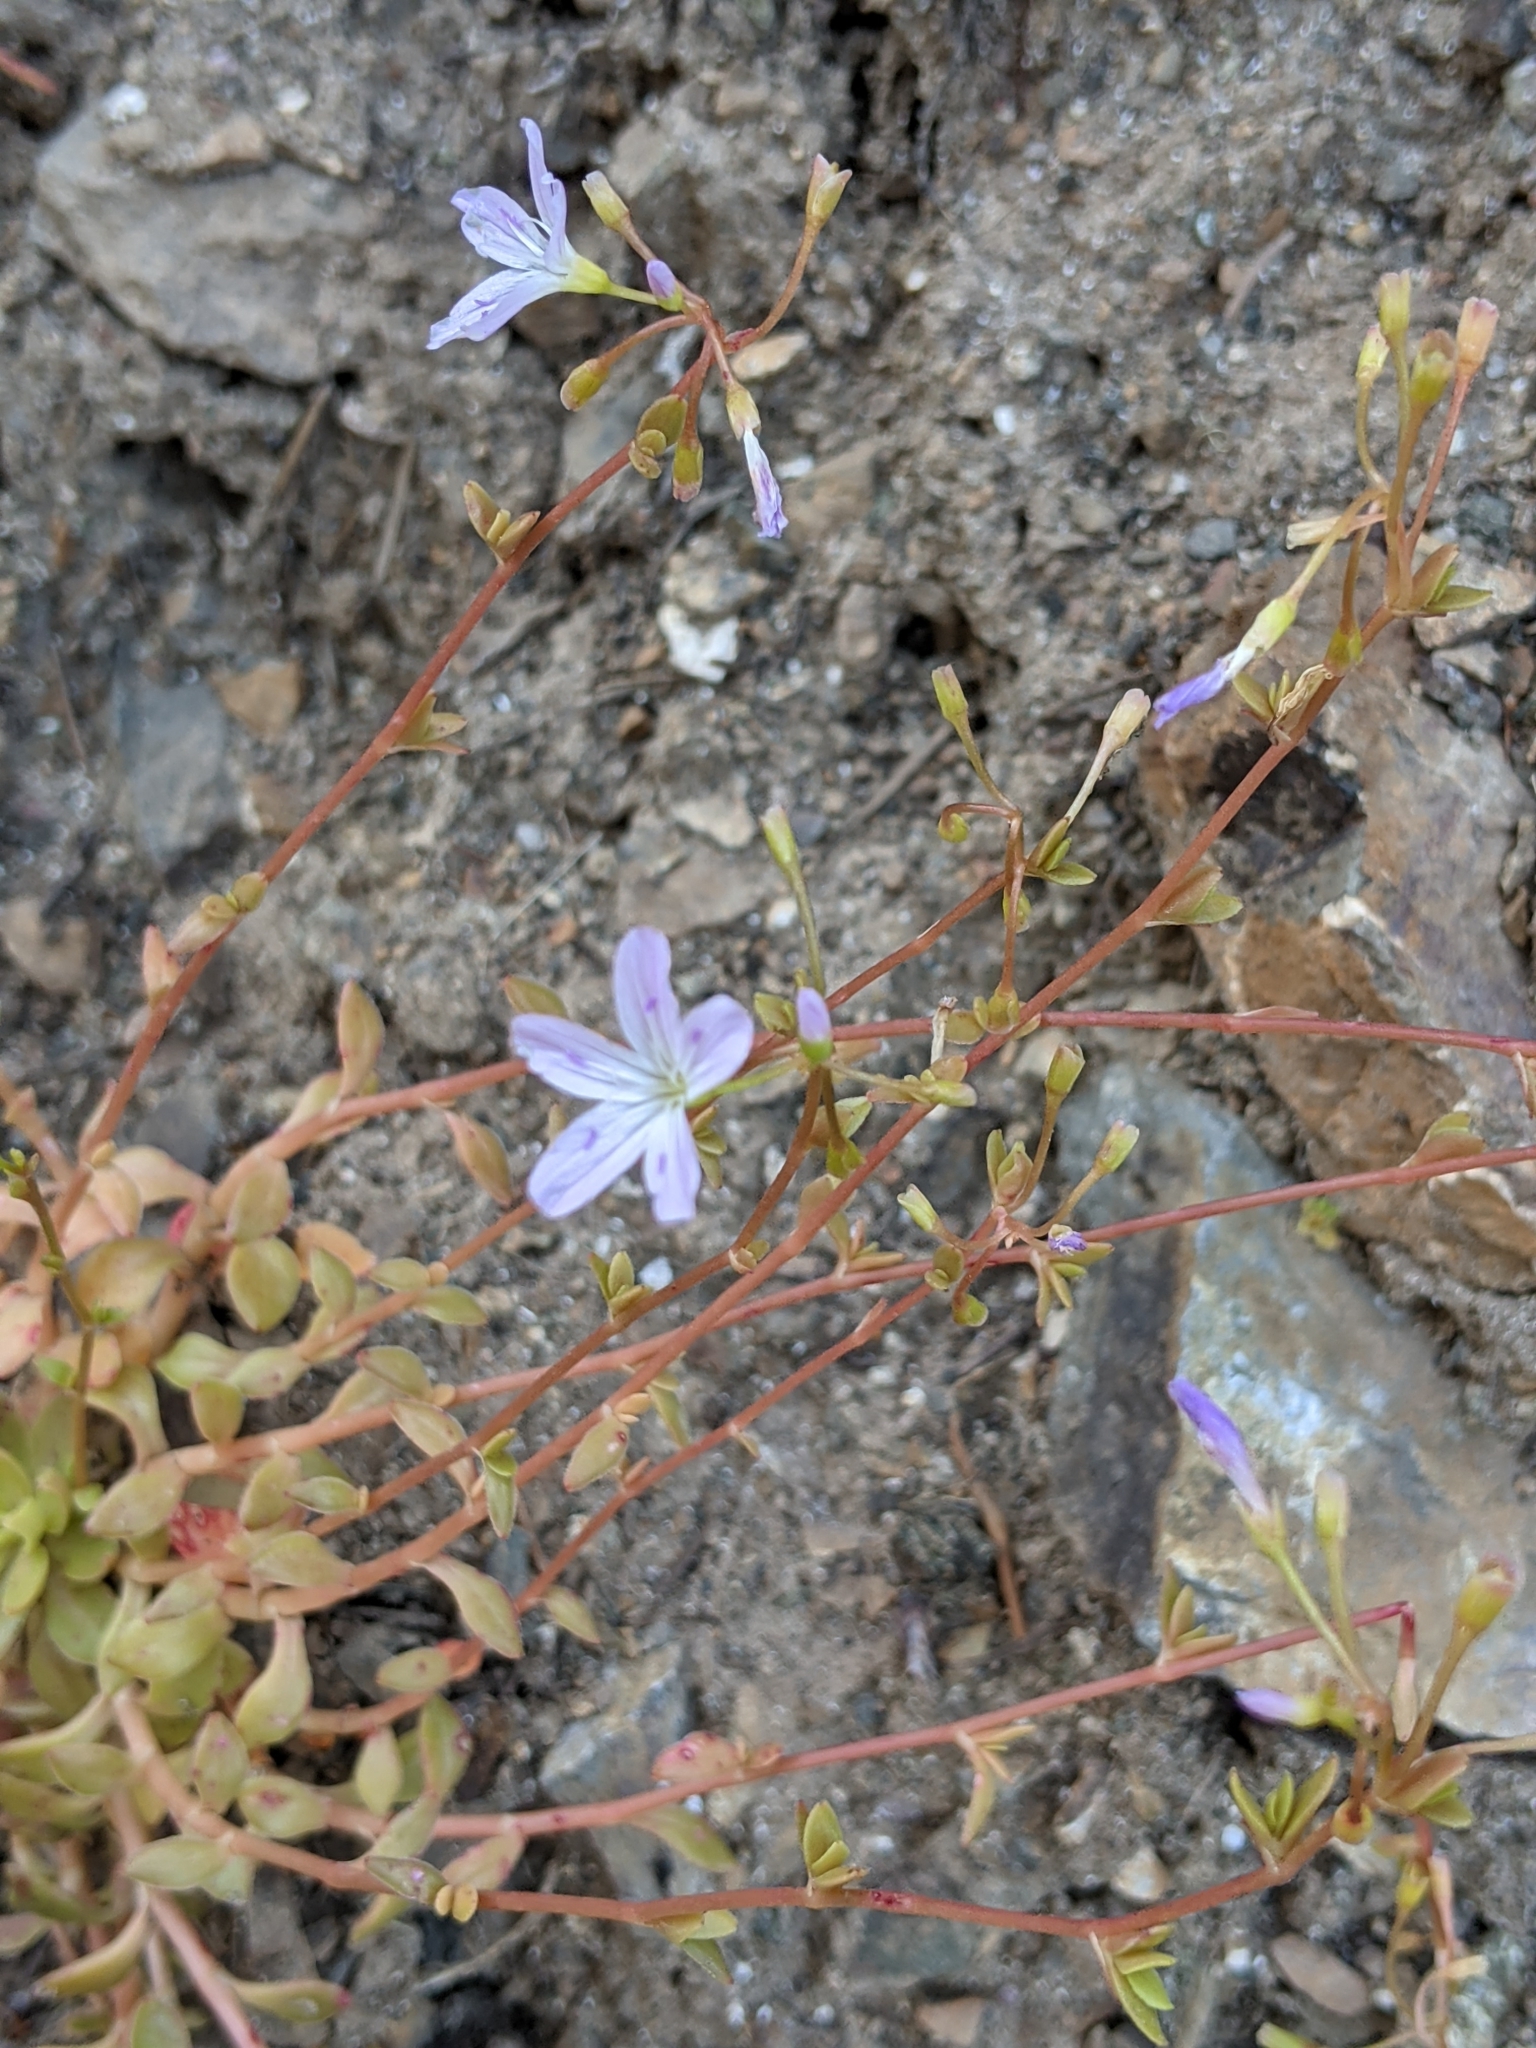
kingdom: Plantae
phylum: Tracheophyta
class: Magnoliopsida
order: Caryophyllales
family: Montiaceae
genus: Montia
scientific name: Montia parvifolia
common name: Small-leaved blinks
